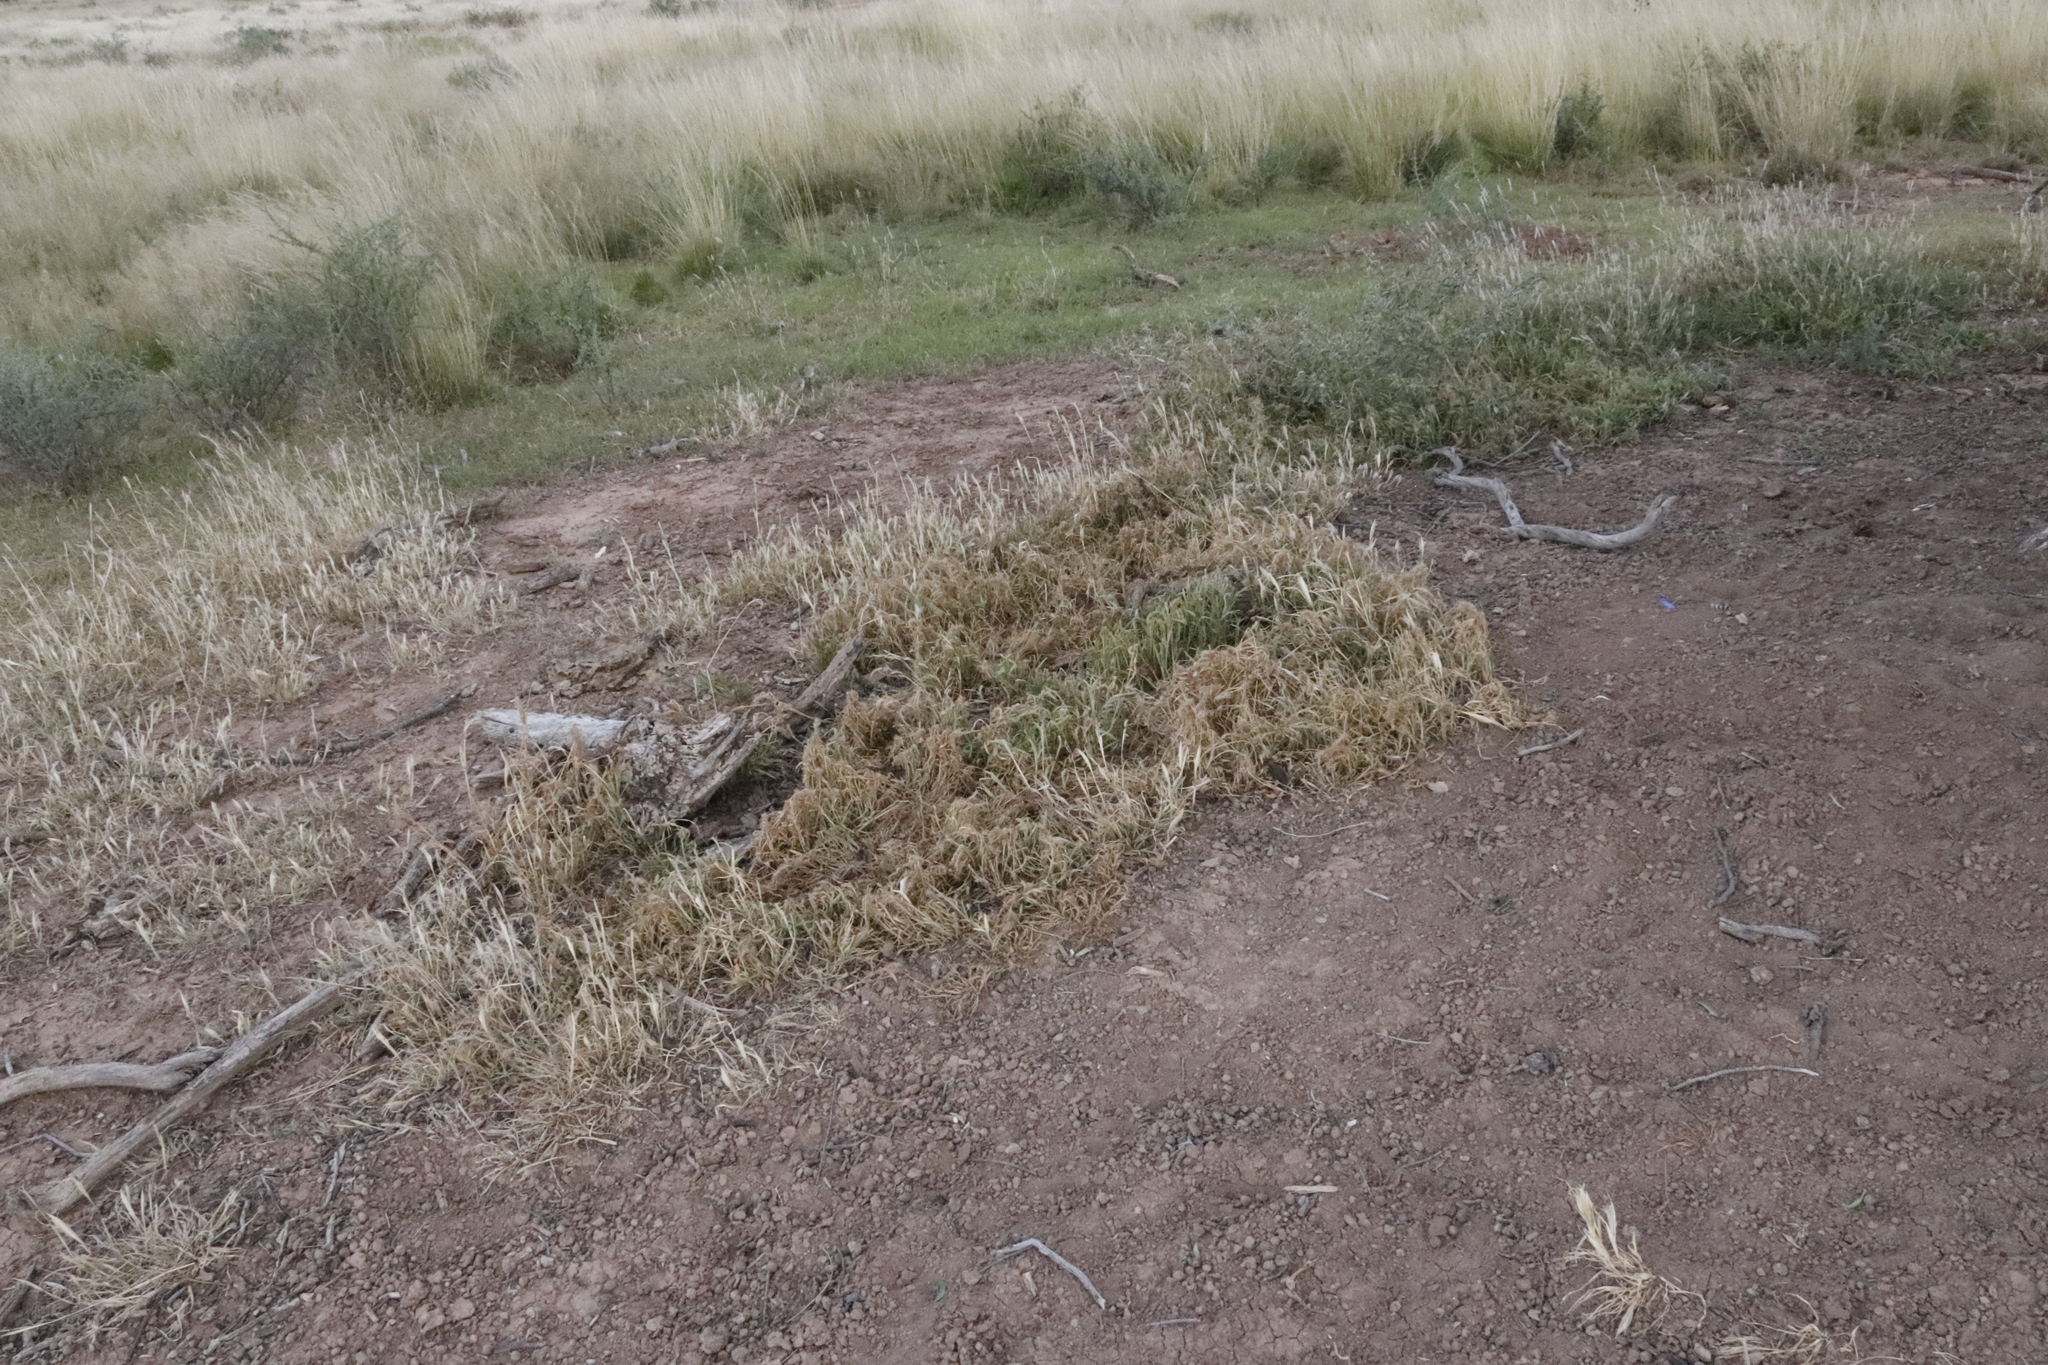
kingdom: Plantae
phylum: Tracheophyta
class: Liliopsida
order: Poales
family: Poaceae
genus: Setaria
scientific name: Setaria verticillata
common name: Hooked bristlegrass
